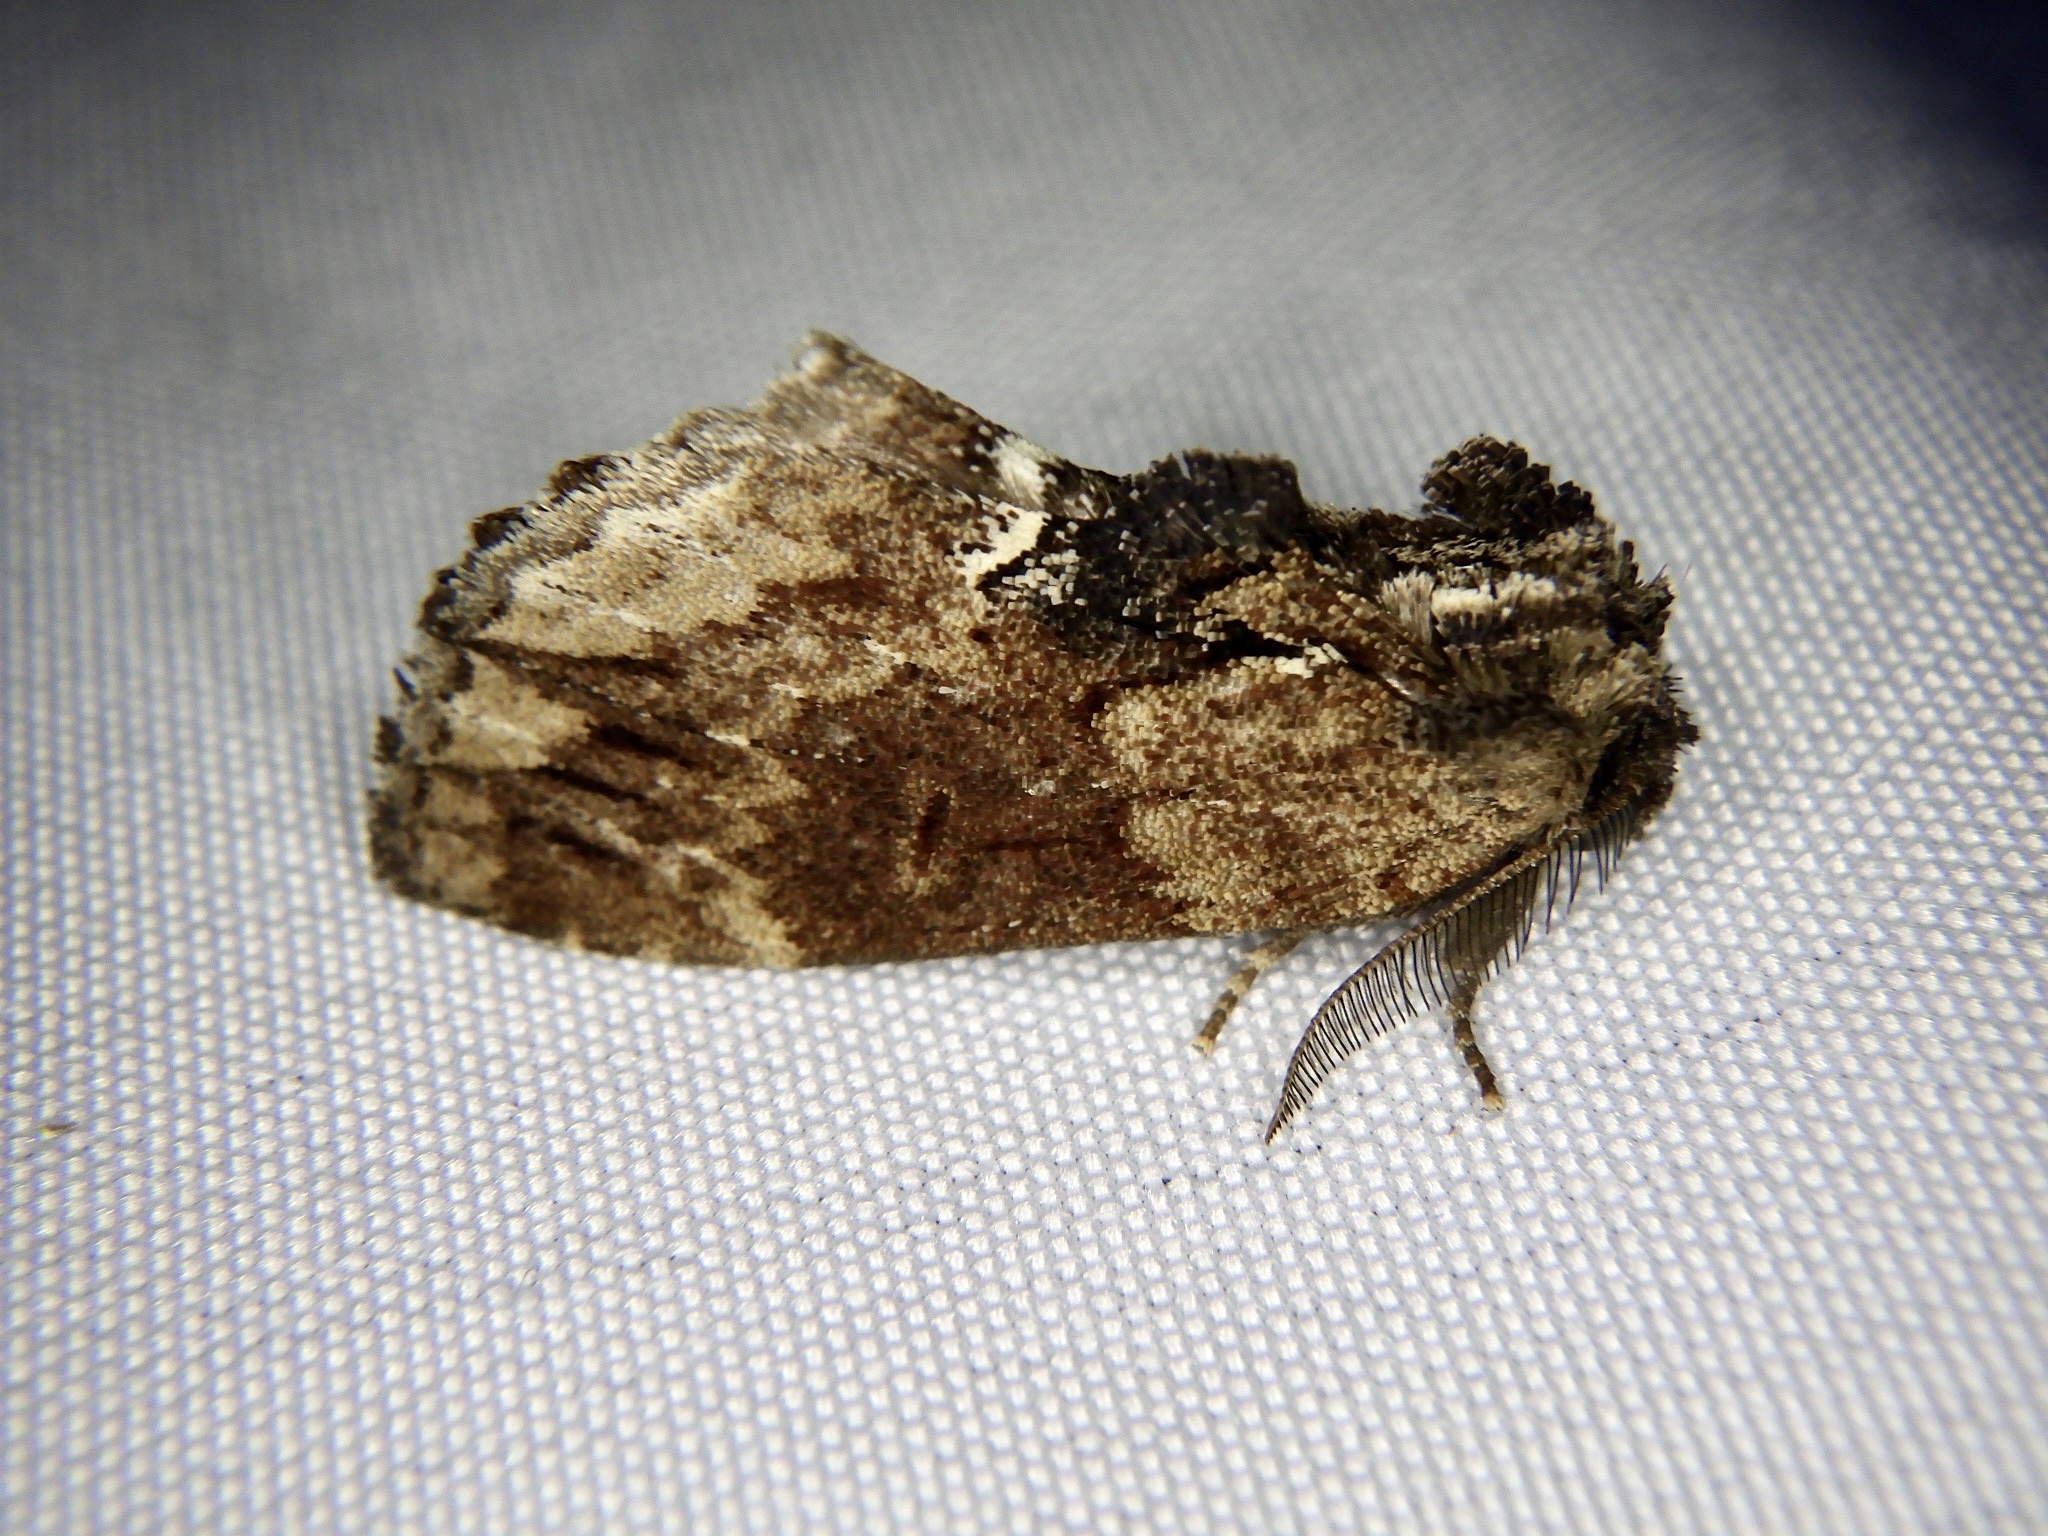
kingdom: Animalia
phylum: Arthropoda
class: Insecta
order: Lepidoptera
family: Notodontidae
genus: Lophontosia
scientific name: Lophontosia
